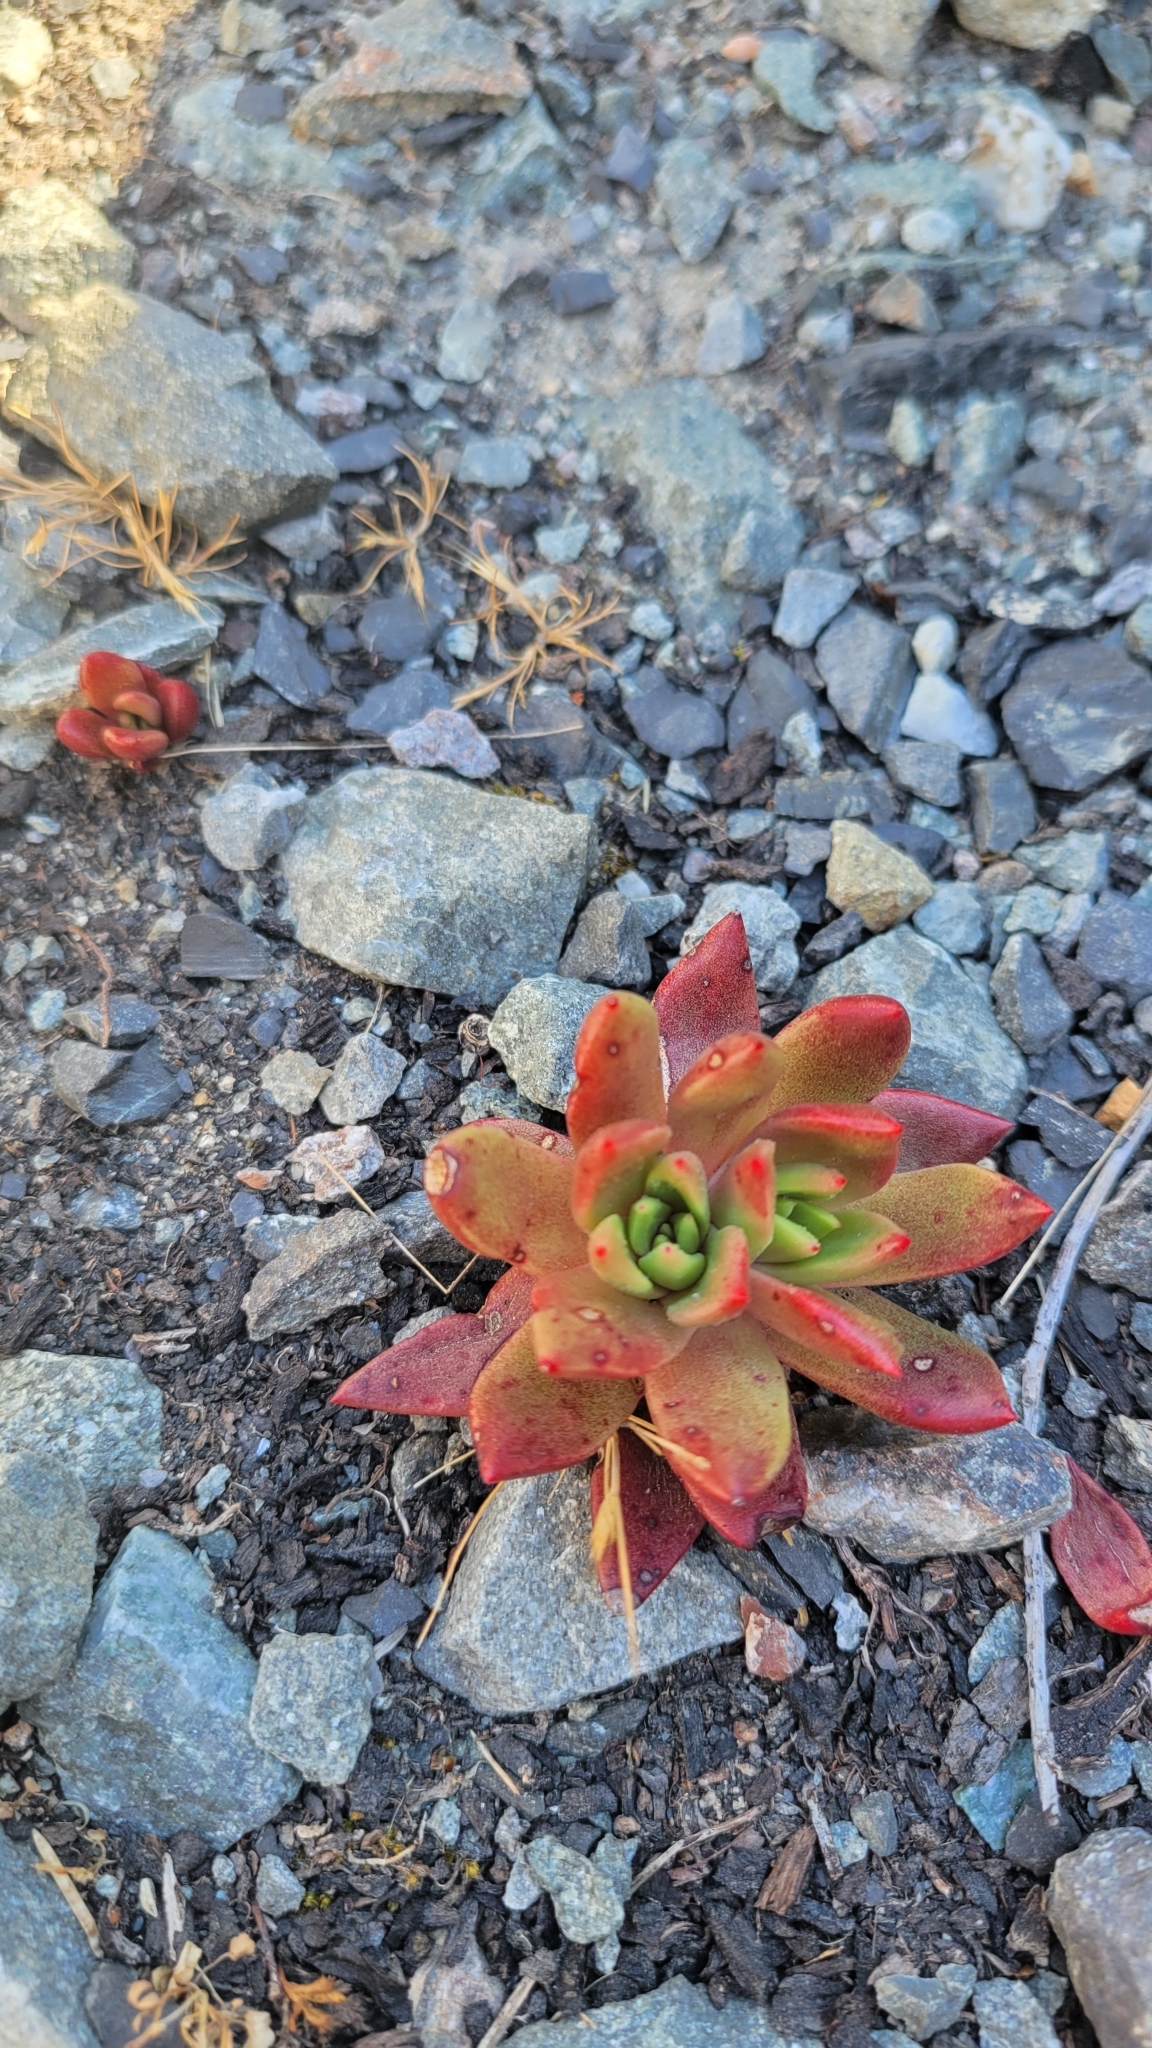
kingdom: Plantae
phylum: Tracheophyta
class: Magnoliopsida
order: Saxifragales
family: Crassulaceae
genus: Dudleya
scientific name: Dudleya farinosa
